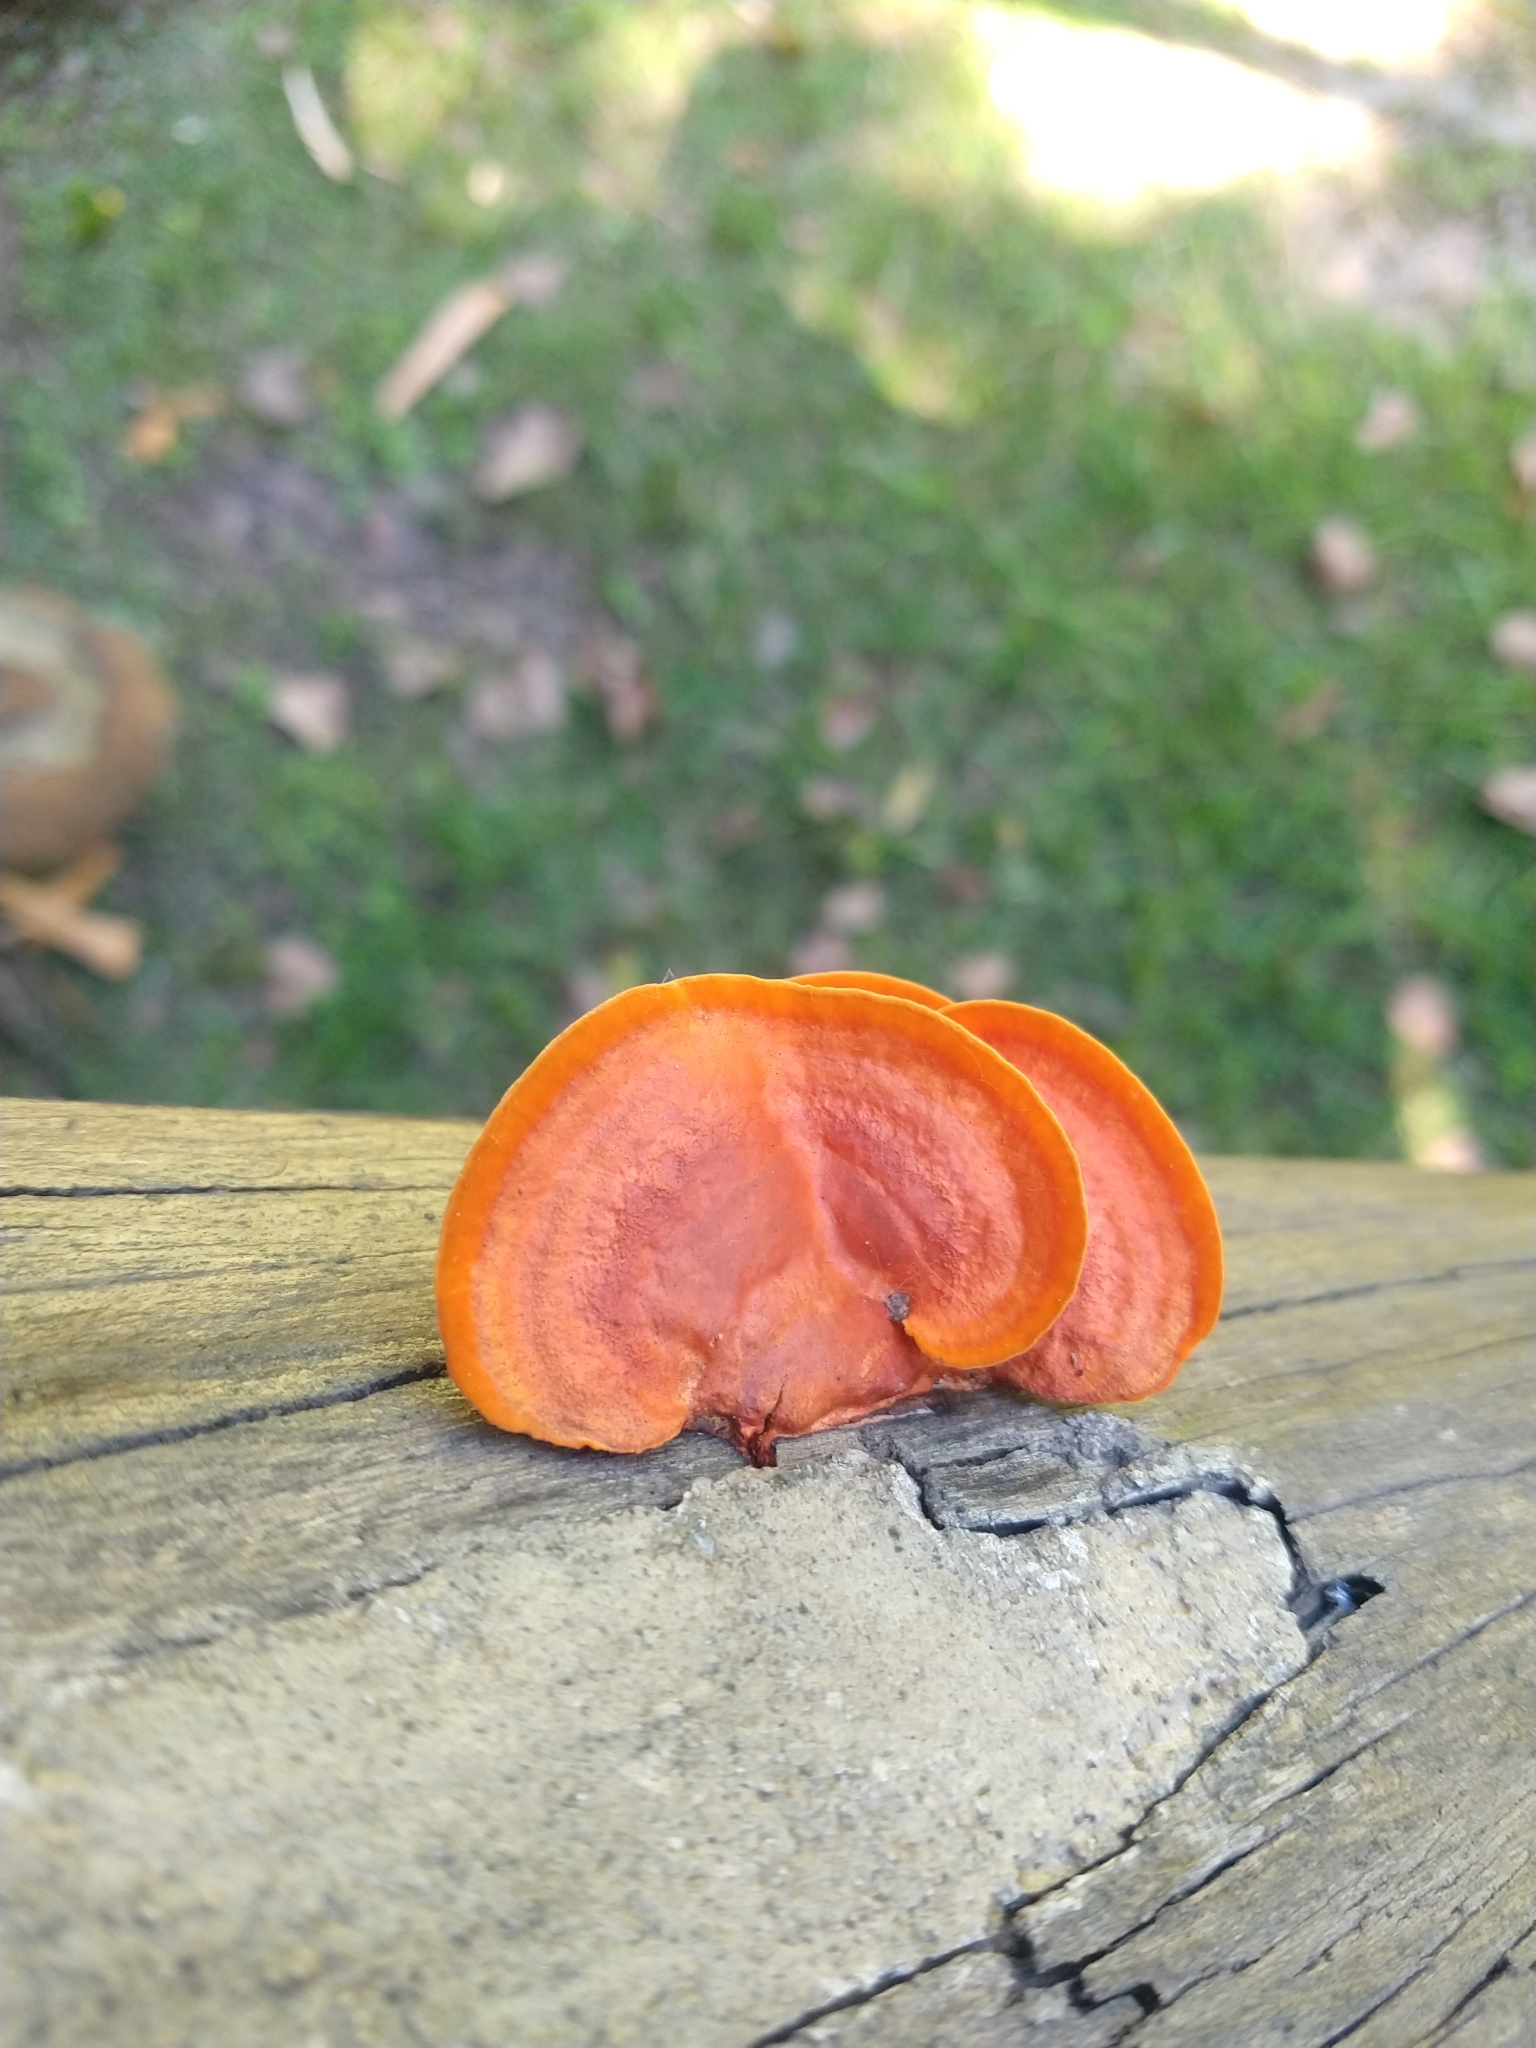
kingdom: Fungi
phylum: Basidiomycota
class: Agaricomycetes
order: Polyporales
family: Polyporaceae
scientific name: Polyporaceae
